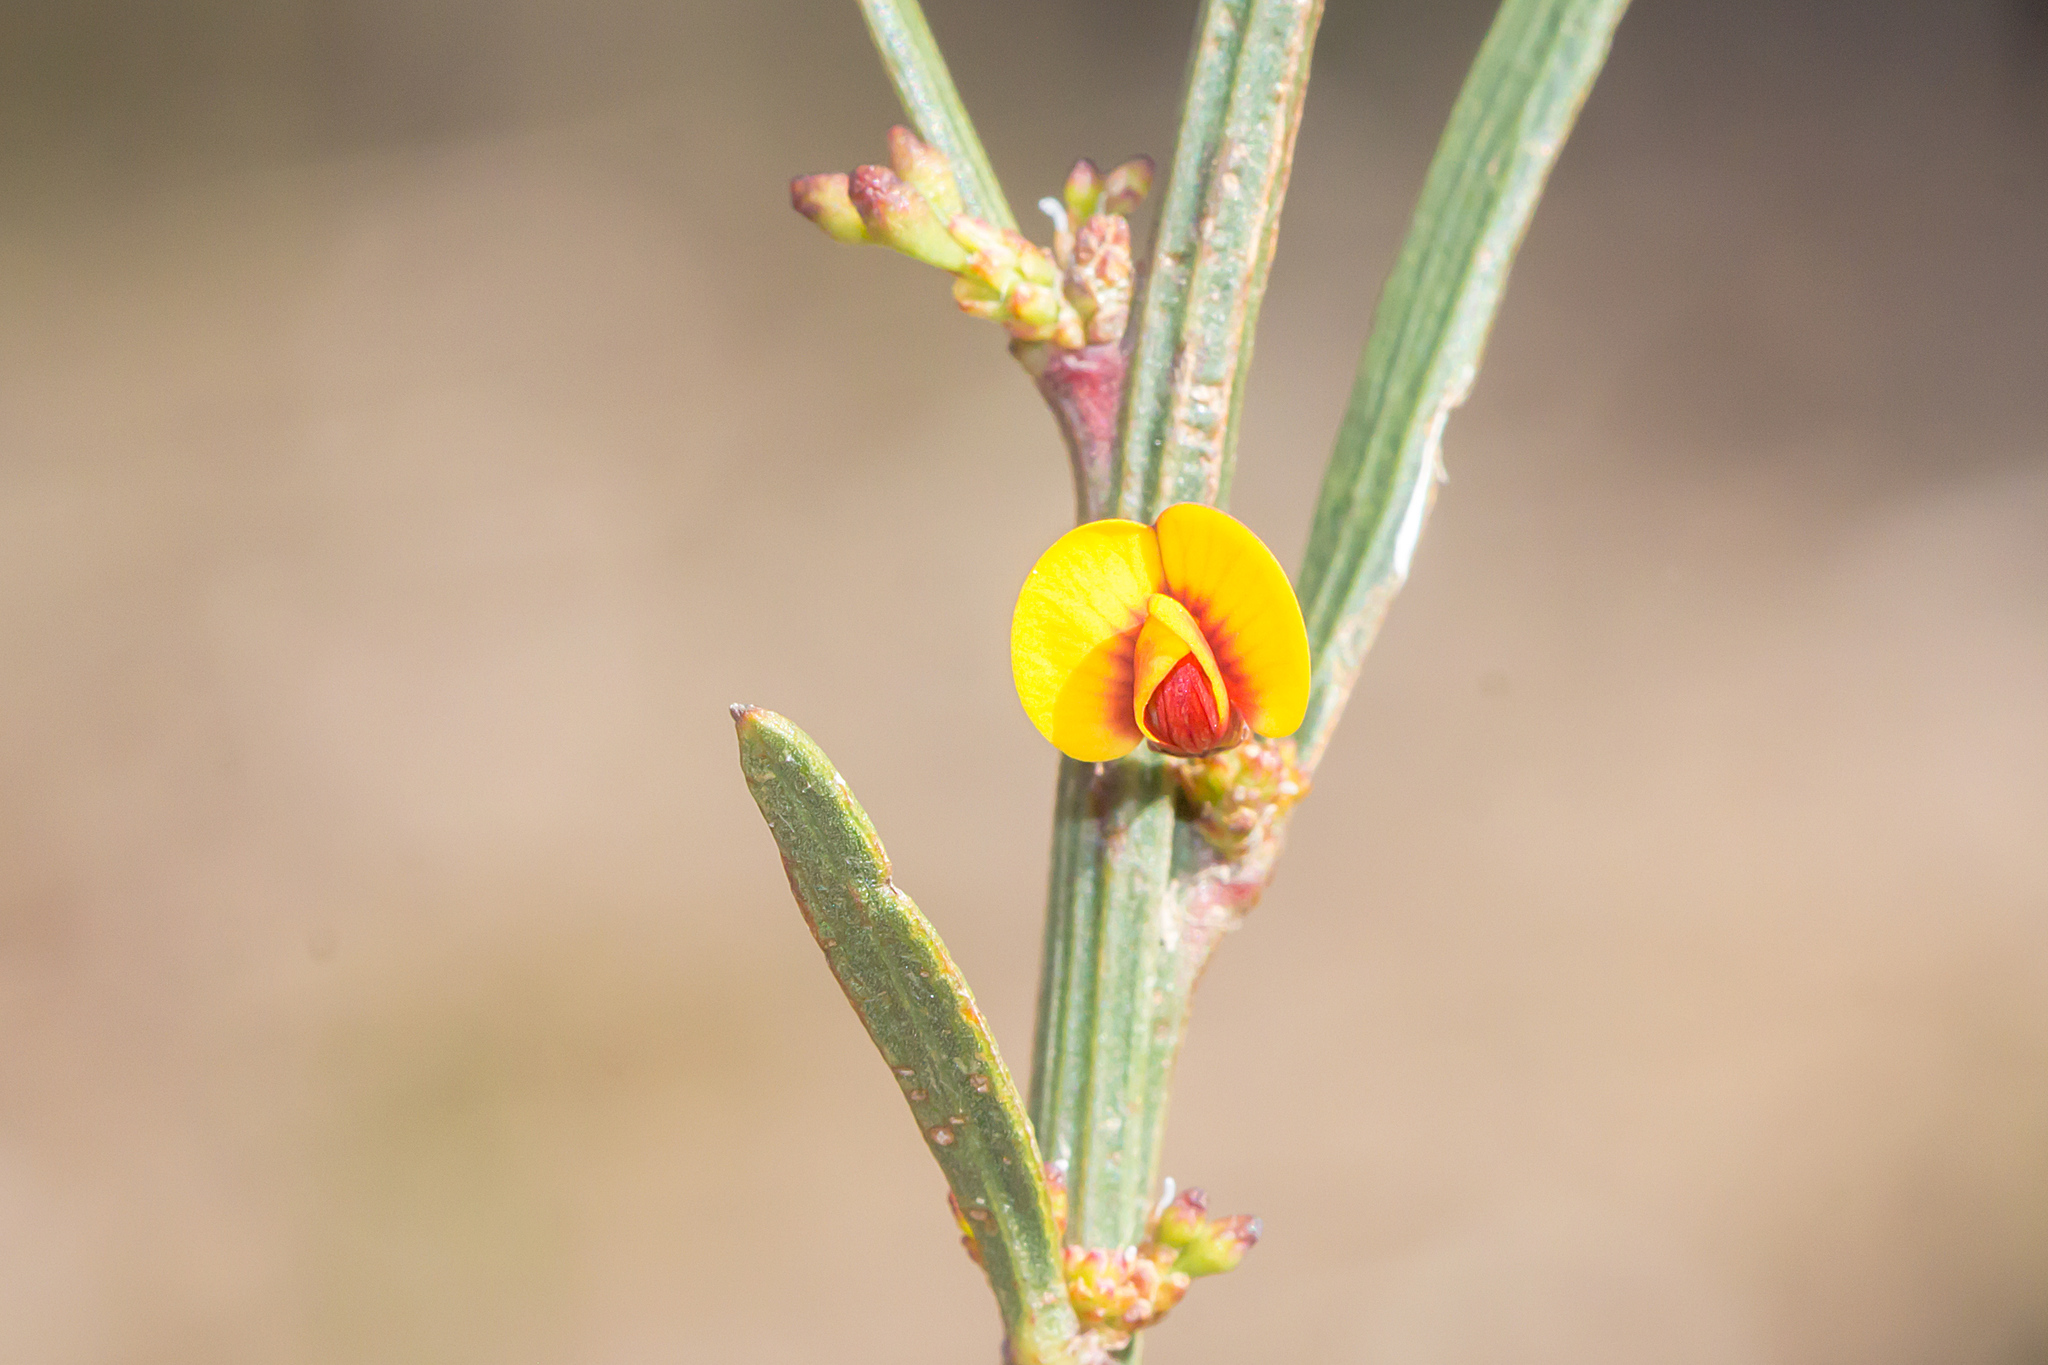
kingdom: Plantae
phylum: Tracheophyta
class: Magnoliopsida
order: Fabales
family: Fabaceae
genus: Daviesia
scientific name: Daviesia leptophylla
